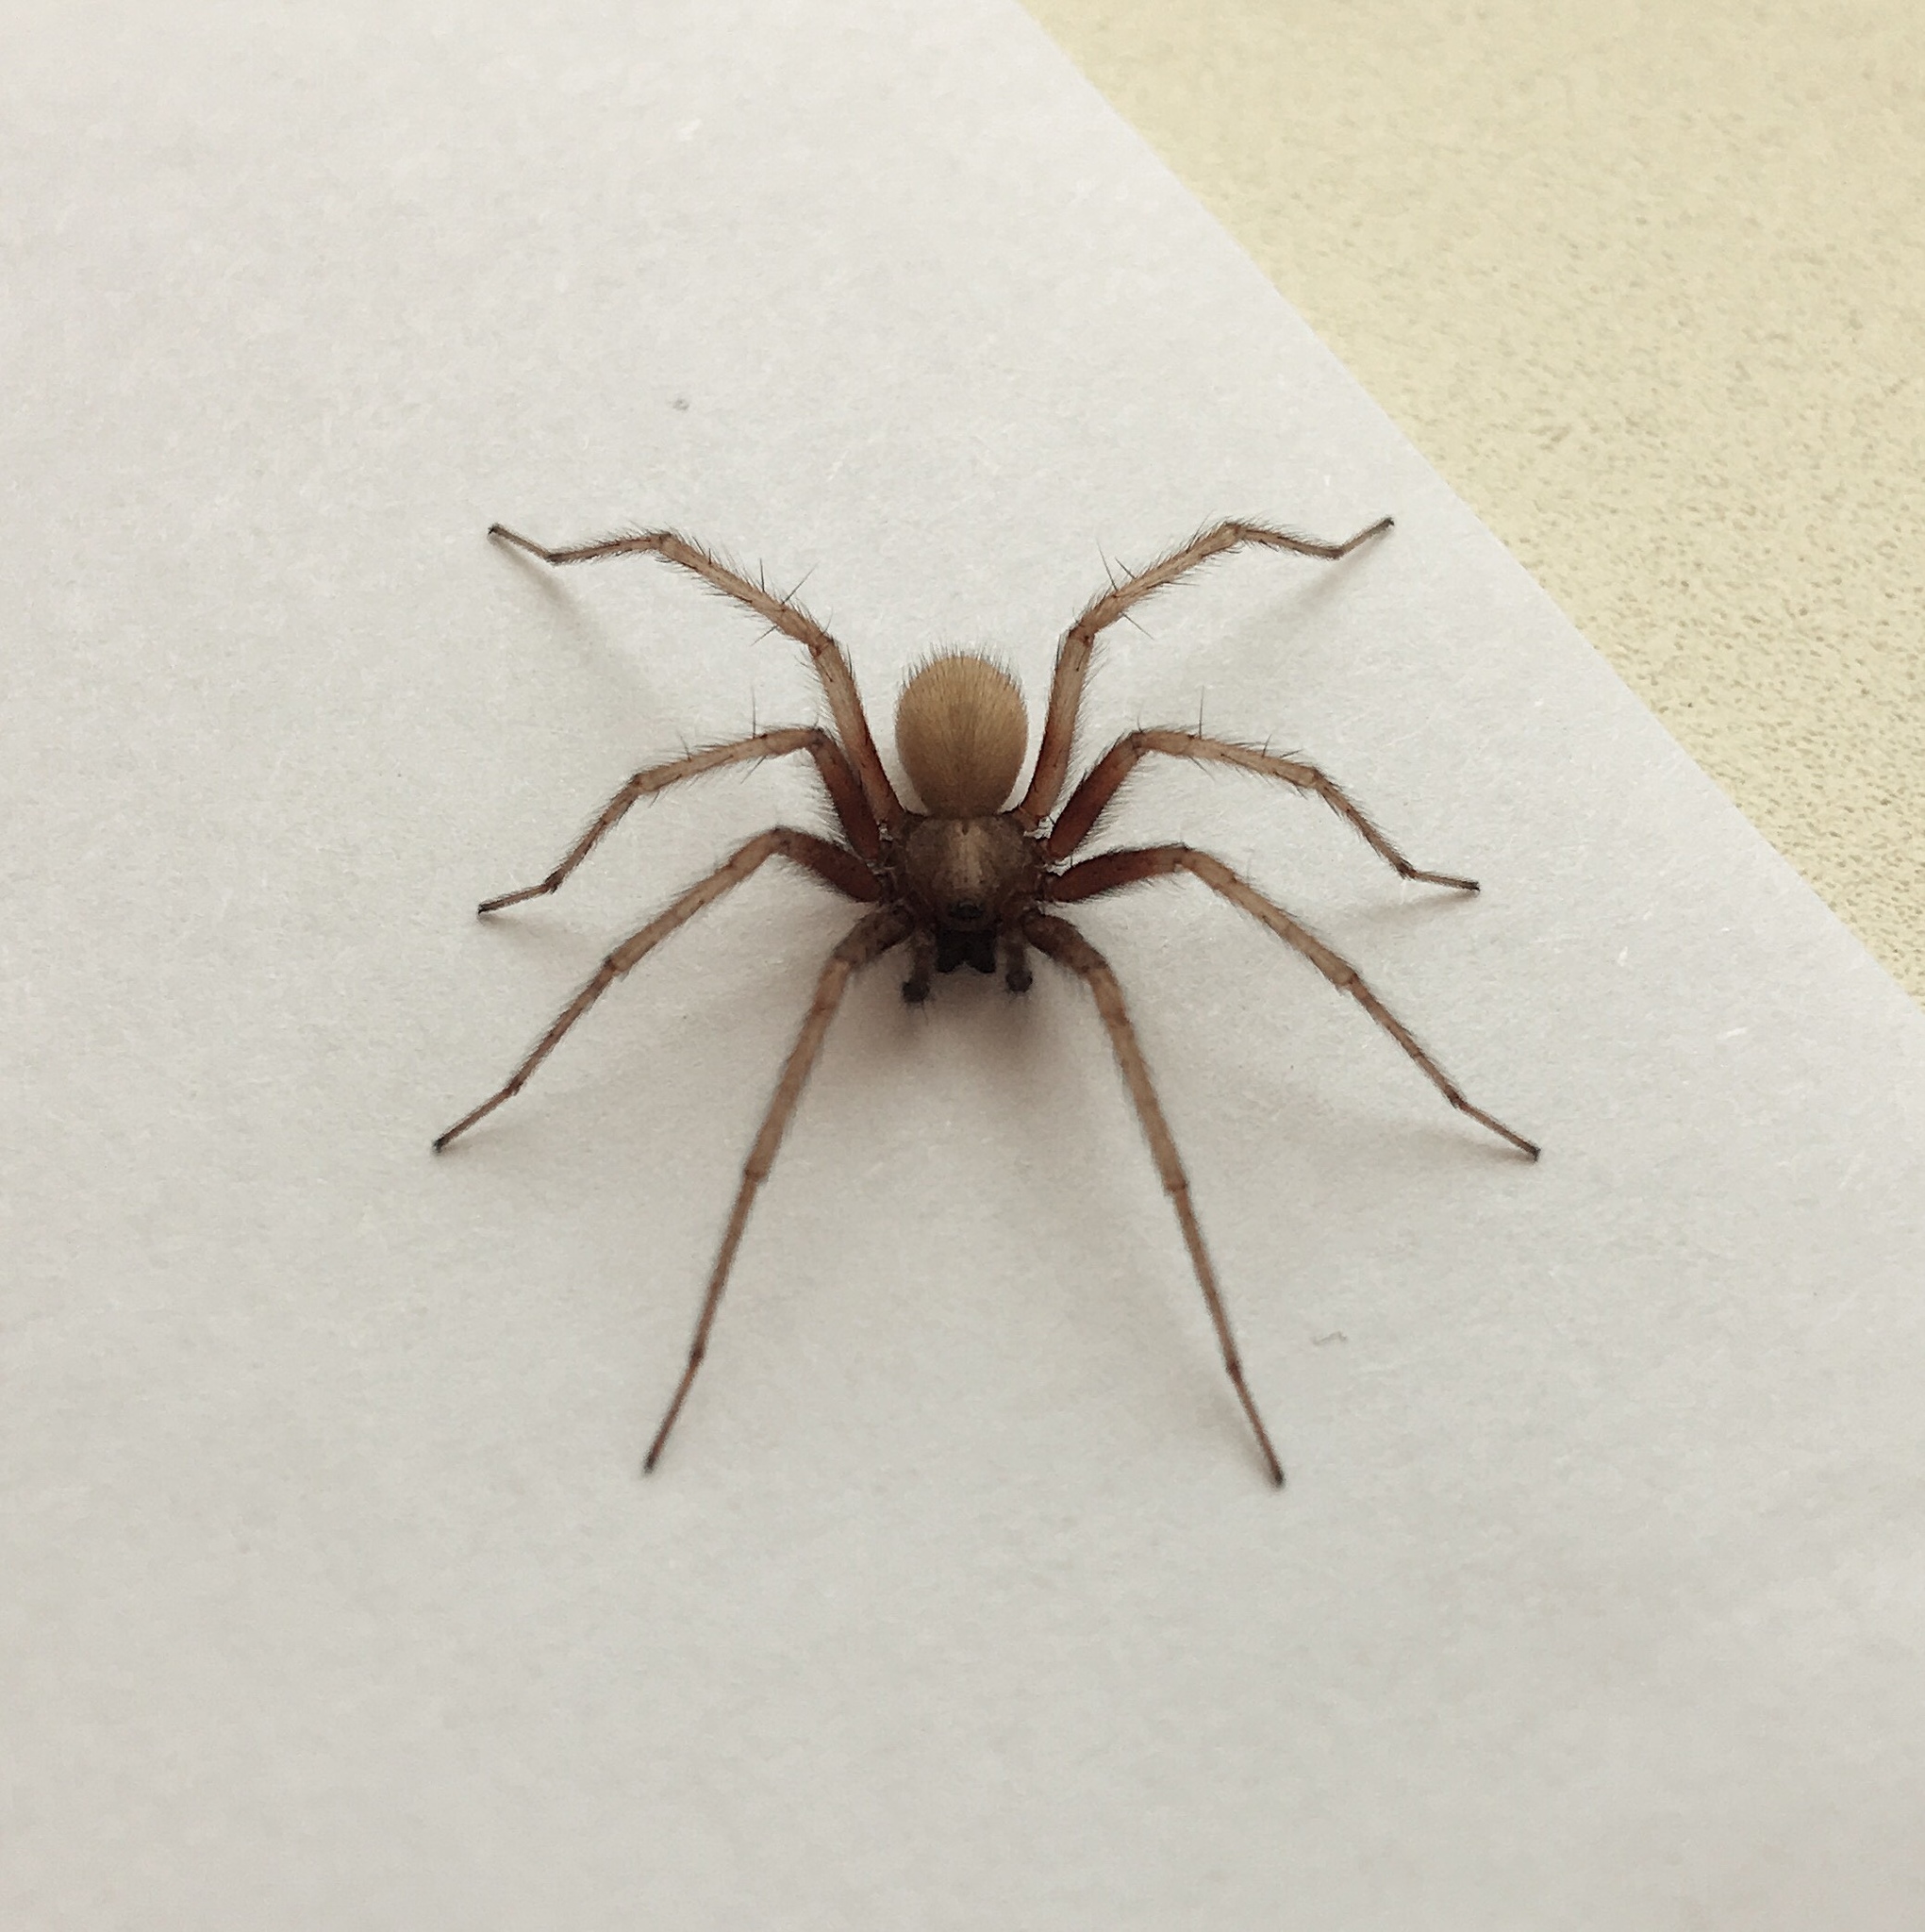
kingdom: Animalia
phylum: Arthropoda
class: Arachnida
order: Araneae
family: Agelenidae
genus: Tegenaria
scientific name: Tegenaria domestica
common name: Barn funnel weaver
